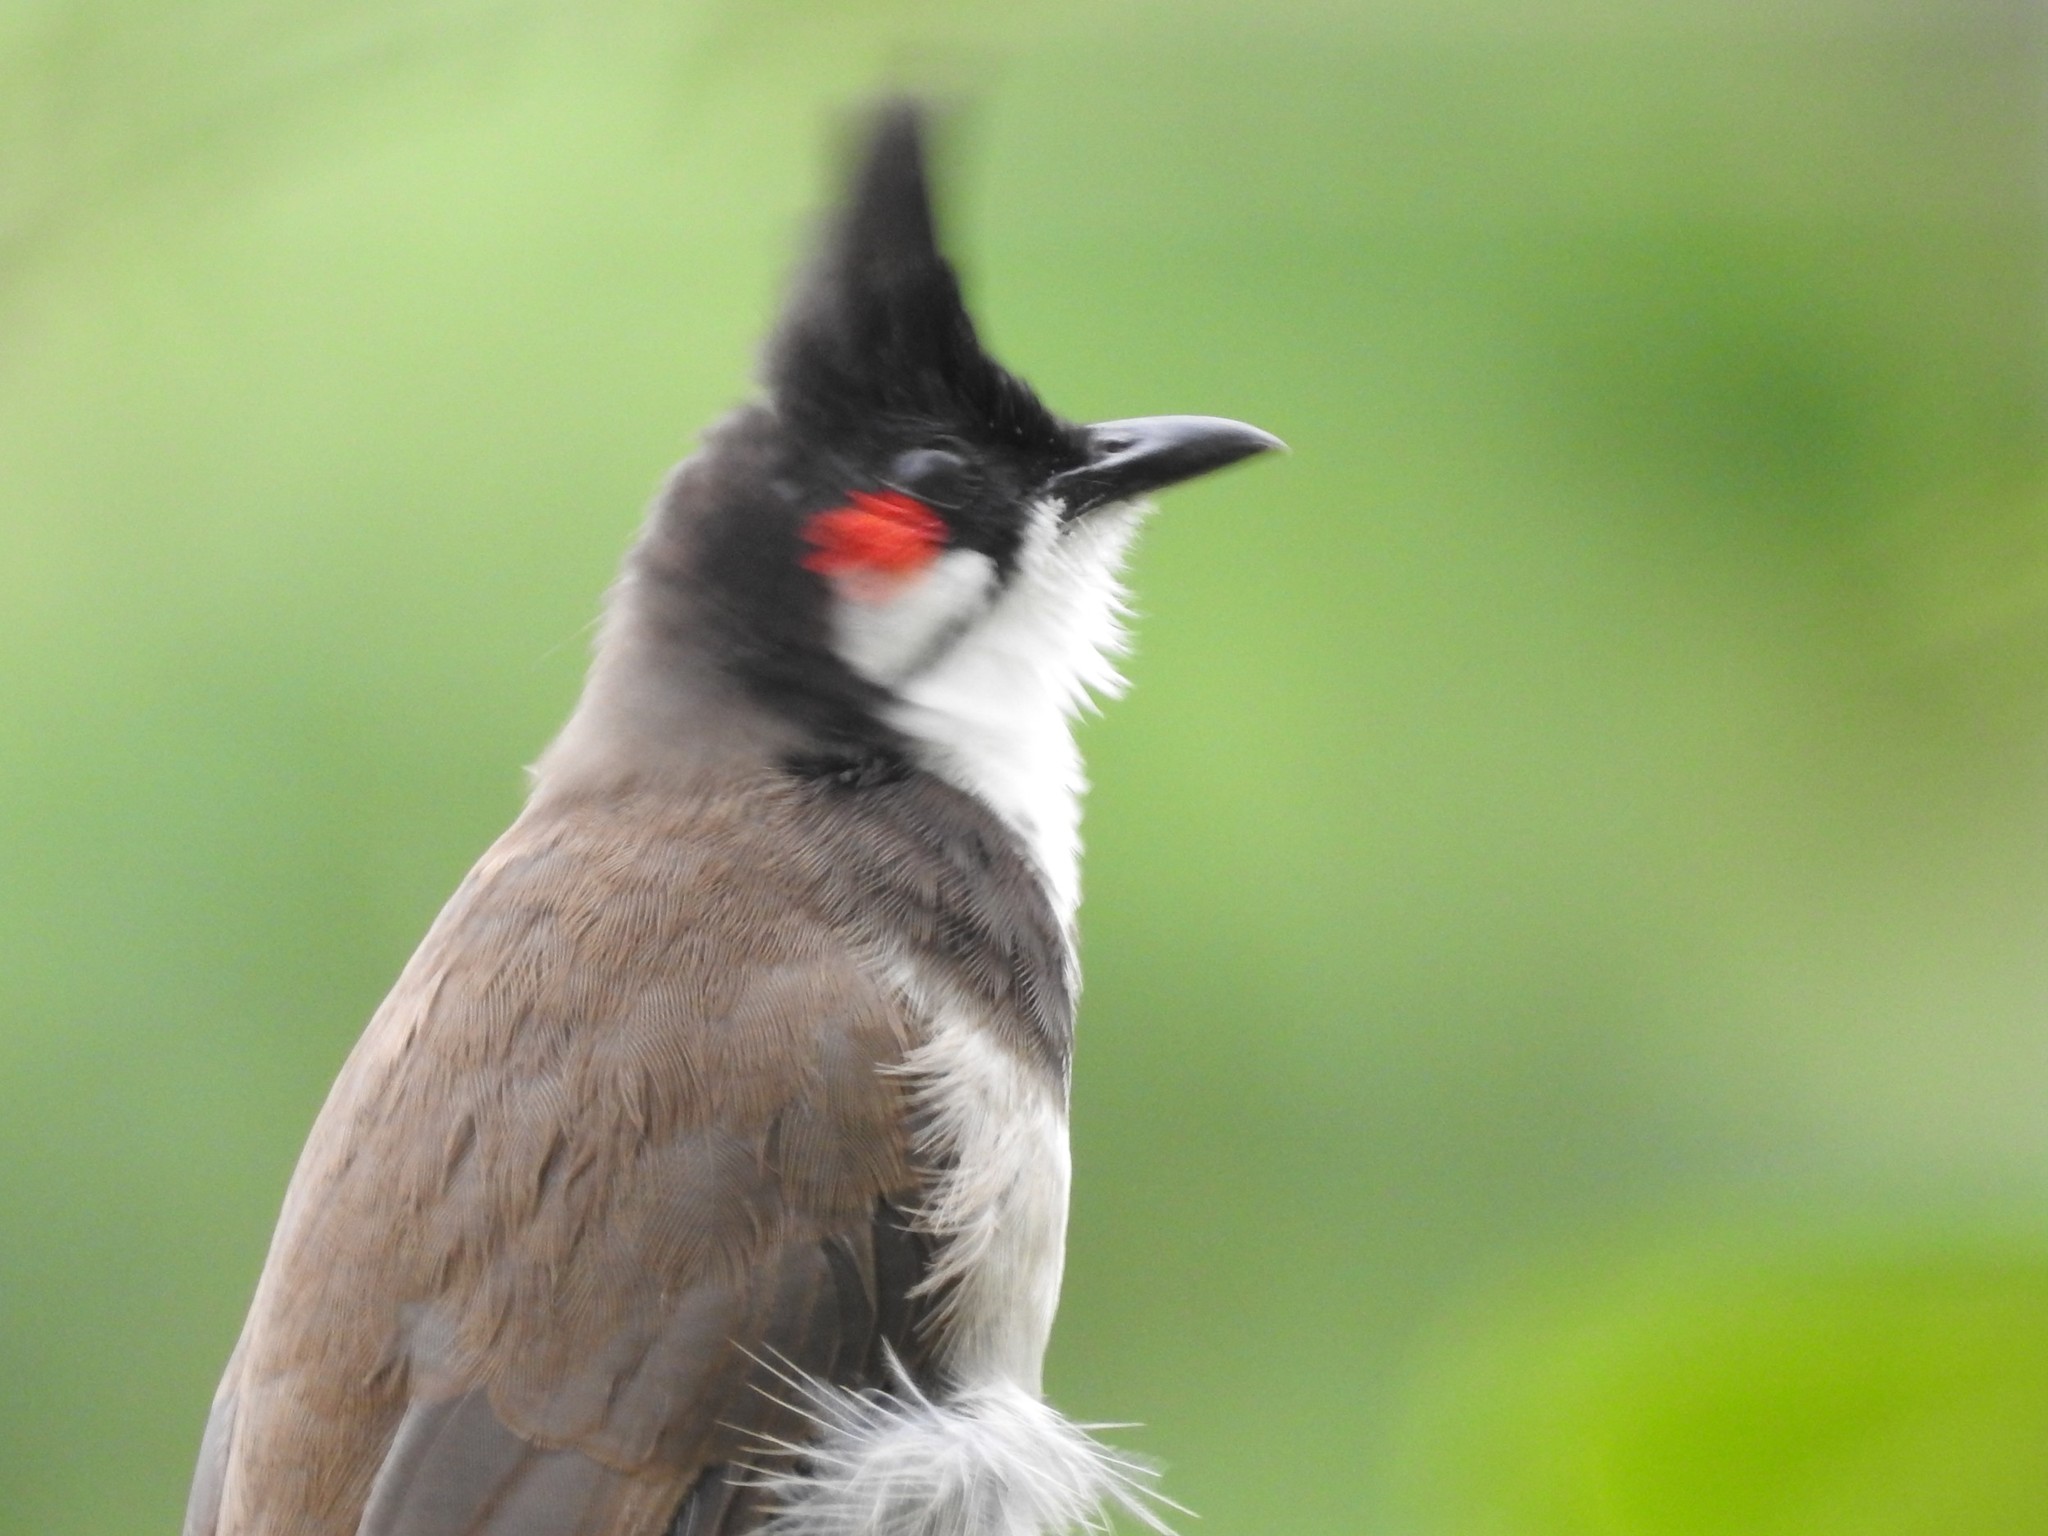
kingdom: Animalia
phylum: Chordata
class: Aves
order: Passeriformes
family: Pycnonotidae
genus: Pycnonotus
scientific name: Pycnonotus jocosus
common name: Red-whiskered bulbul
